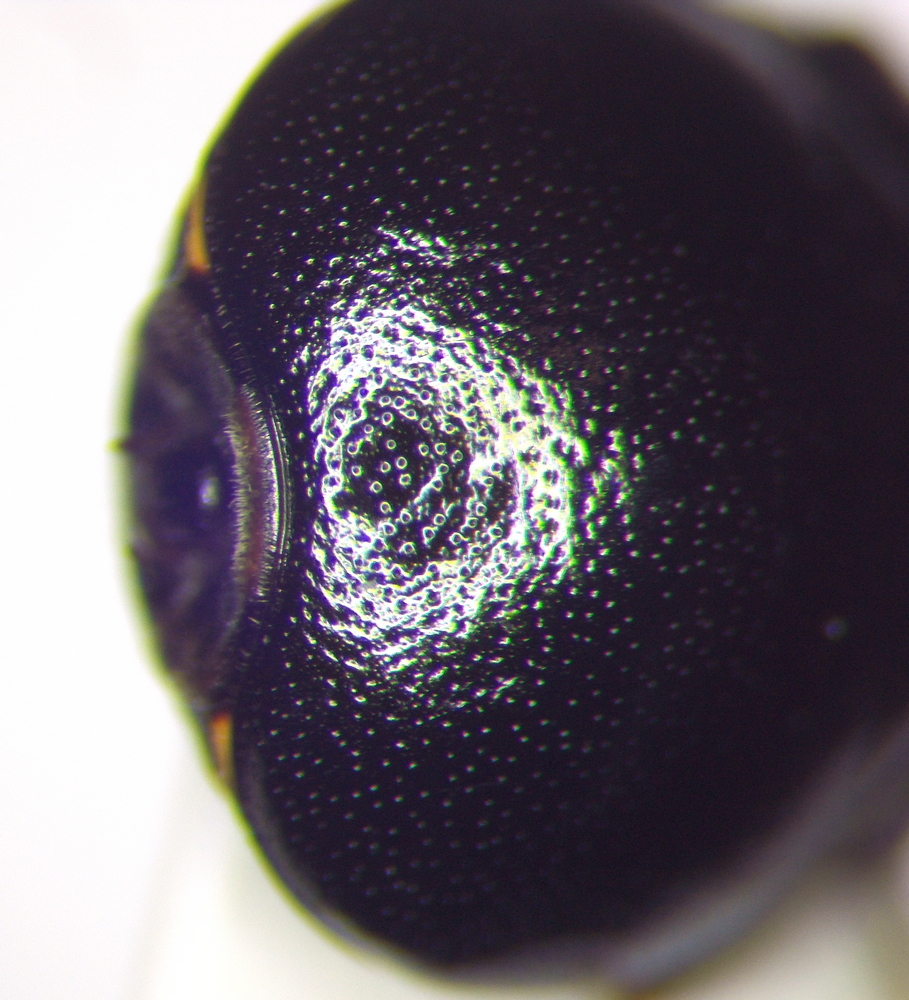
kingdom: Animalia
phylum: Arthropoda
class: Insecta
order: Hemiptera
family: Plataspidae
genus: Coptosoma
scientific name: Coptosoma scutellatum
